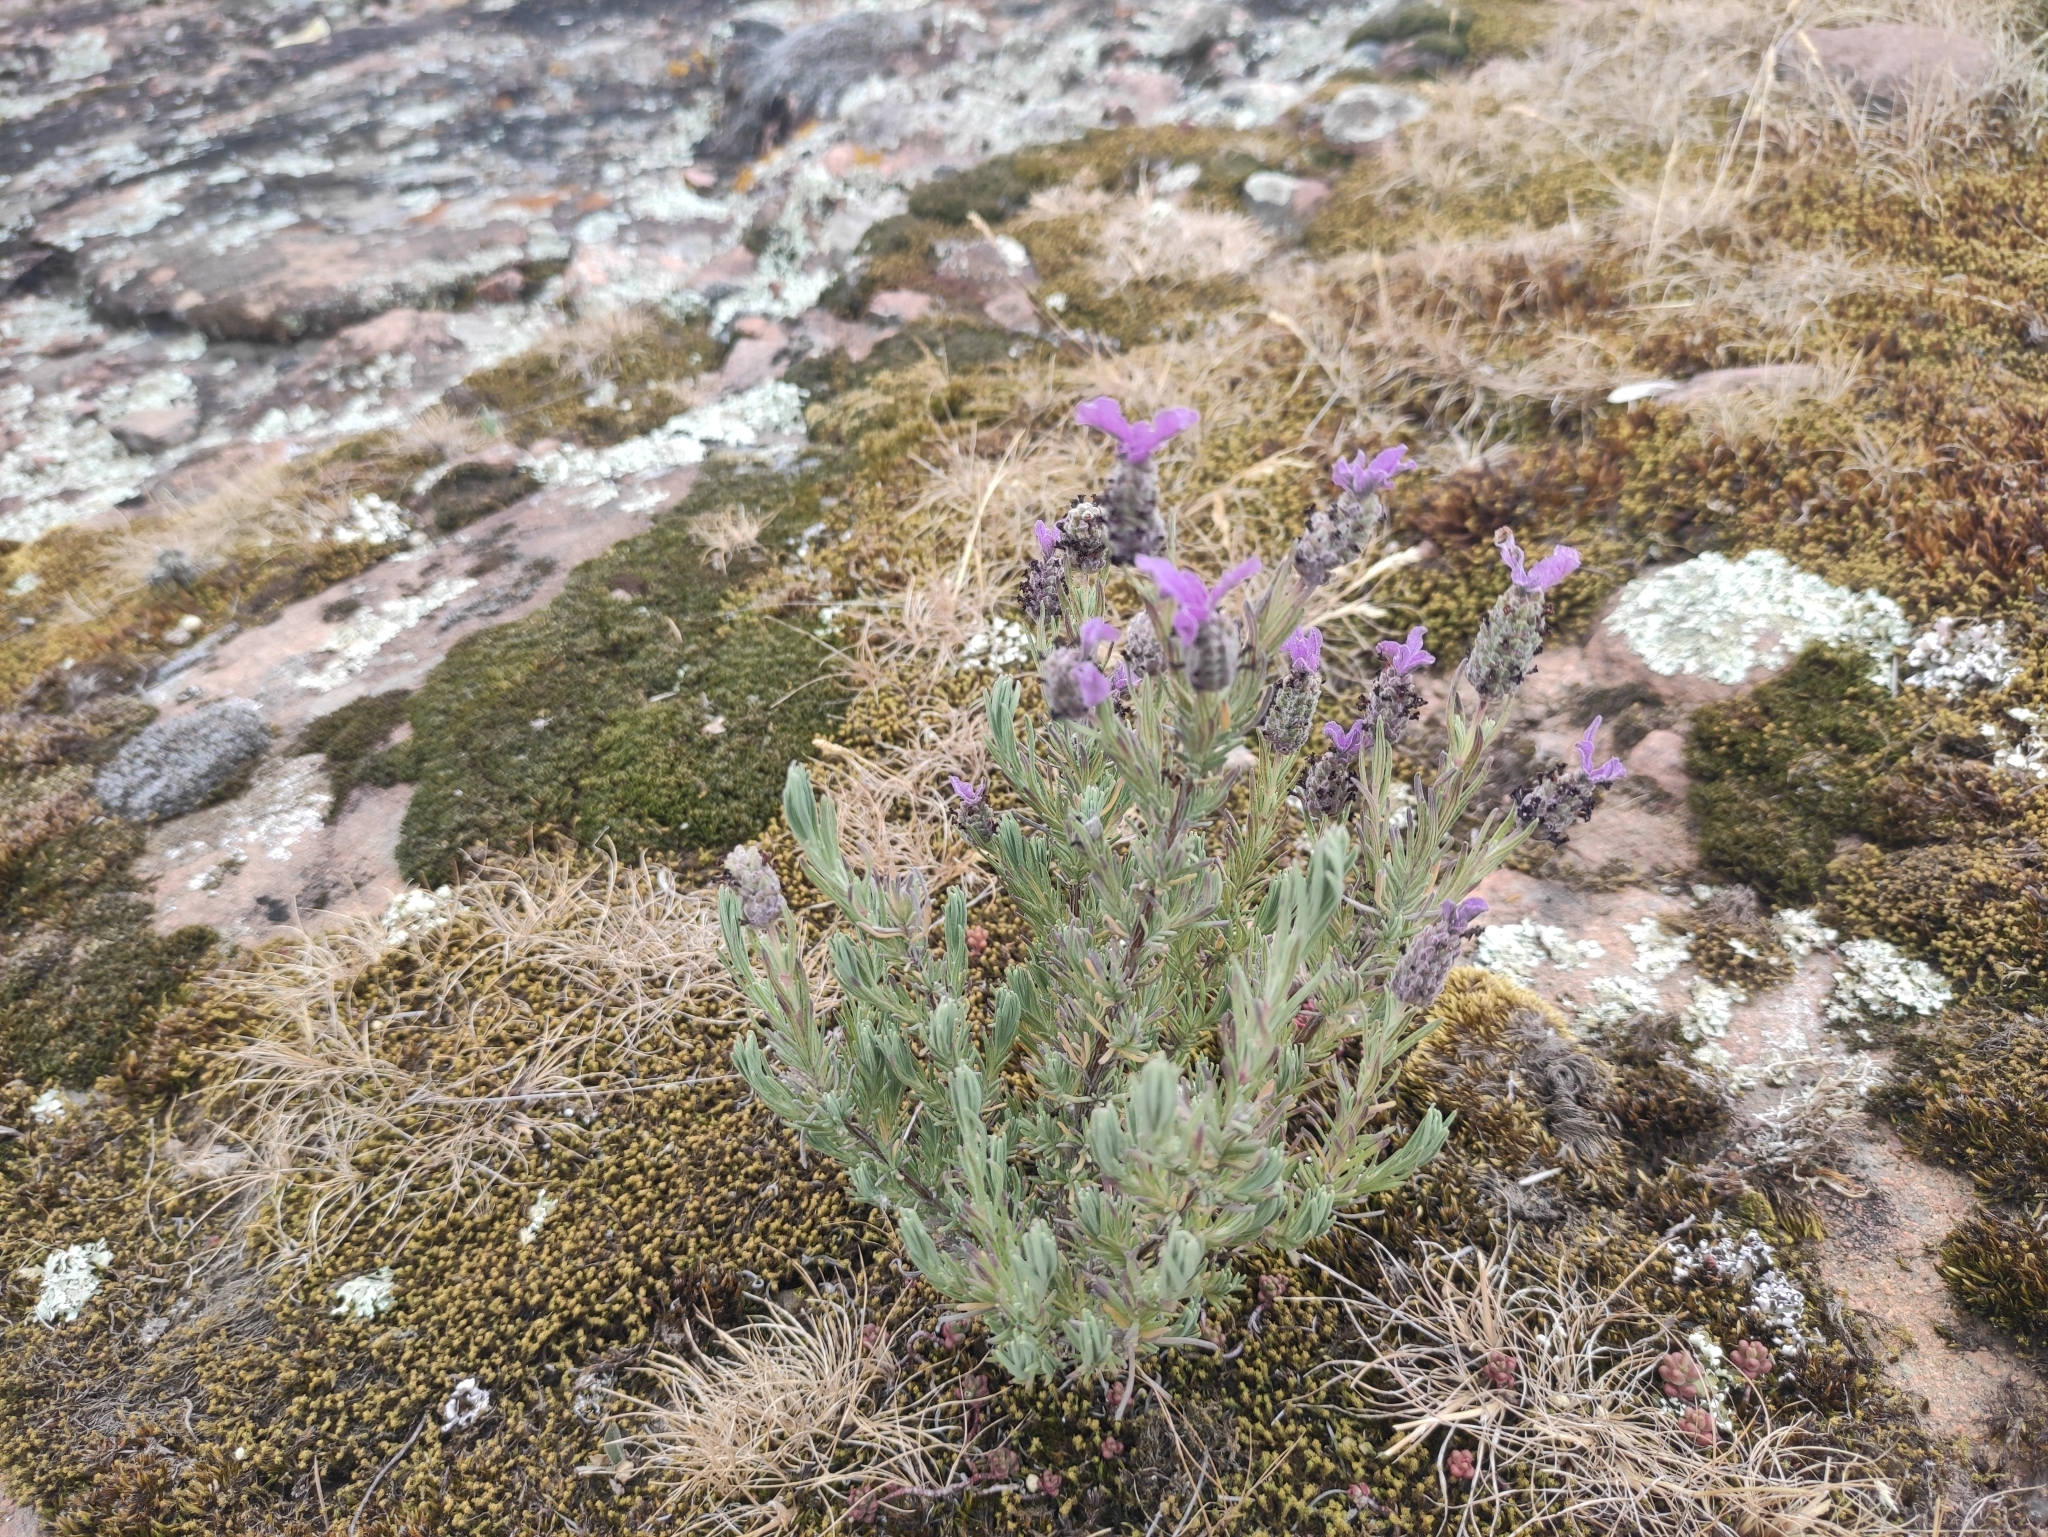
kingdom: Plantae
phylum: Tracheophyta
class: Magnoliopsida
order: Lamiales
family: Lamiaceae
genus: Lavandula
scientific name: Lavandula stoechas
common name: French lavender
